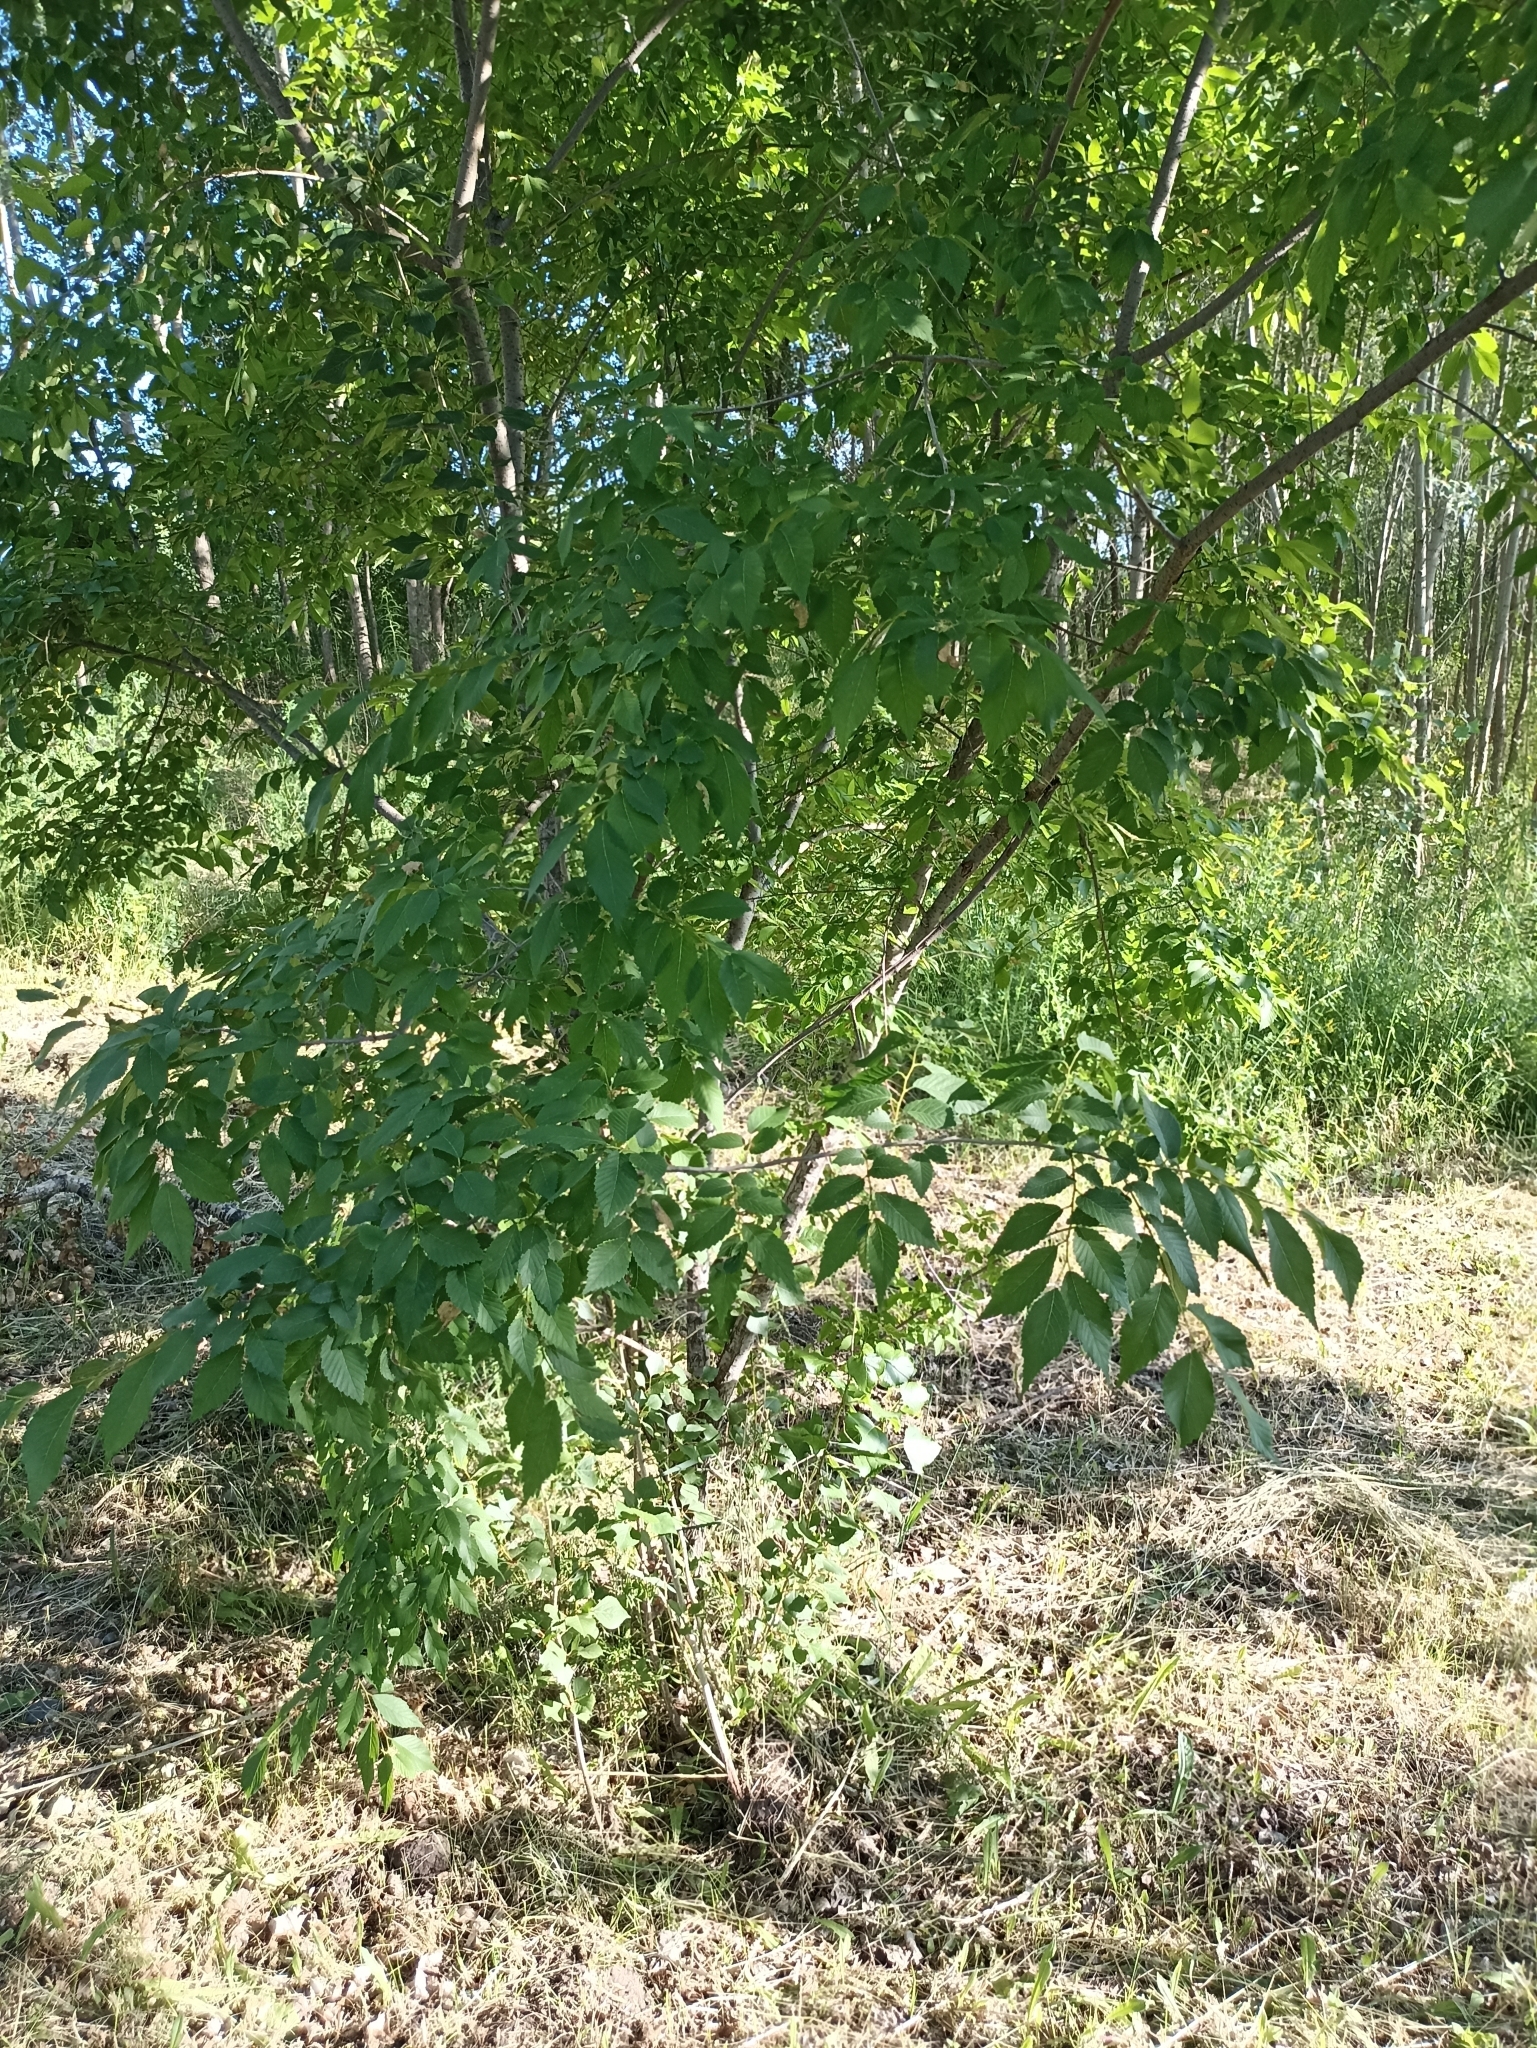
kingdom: Plantae
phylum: Tracheophyta
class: Magnoliopsida
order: Rosales
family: Ulmaceae
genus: Ulmus
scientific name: Ulmus pumila
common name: Siberian elm
